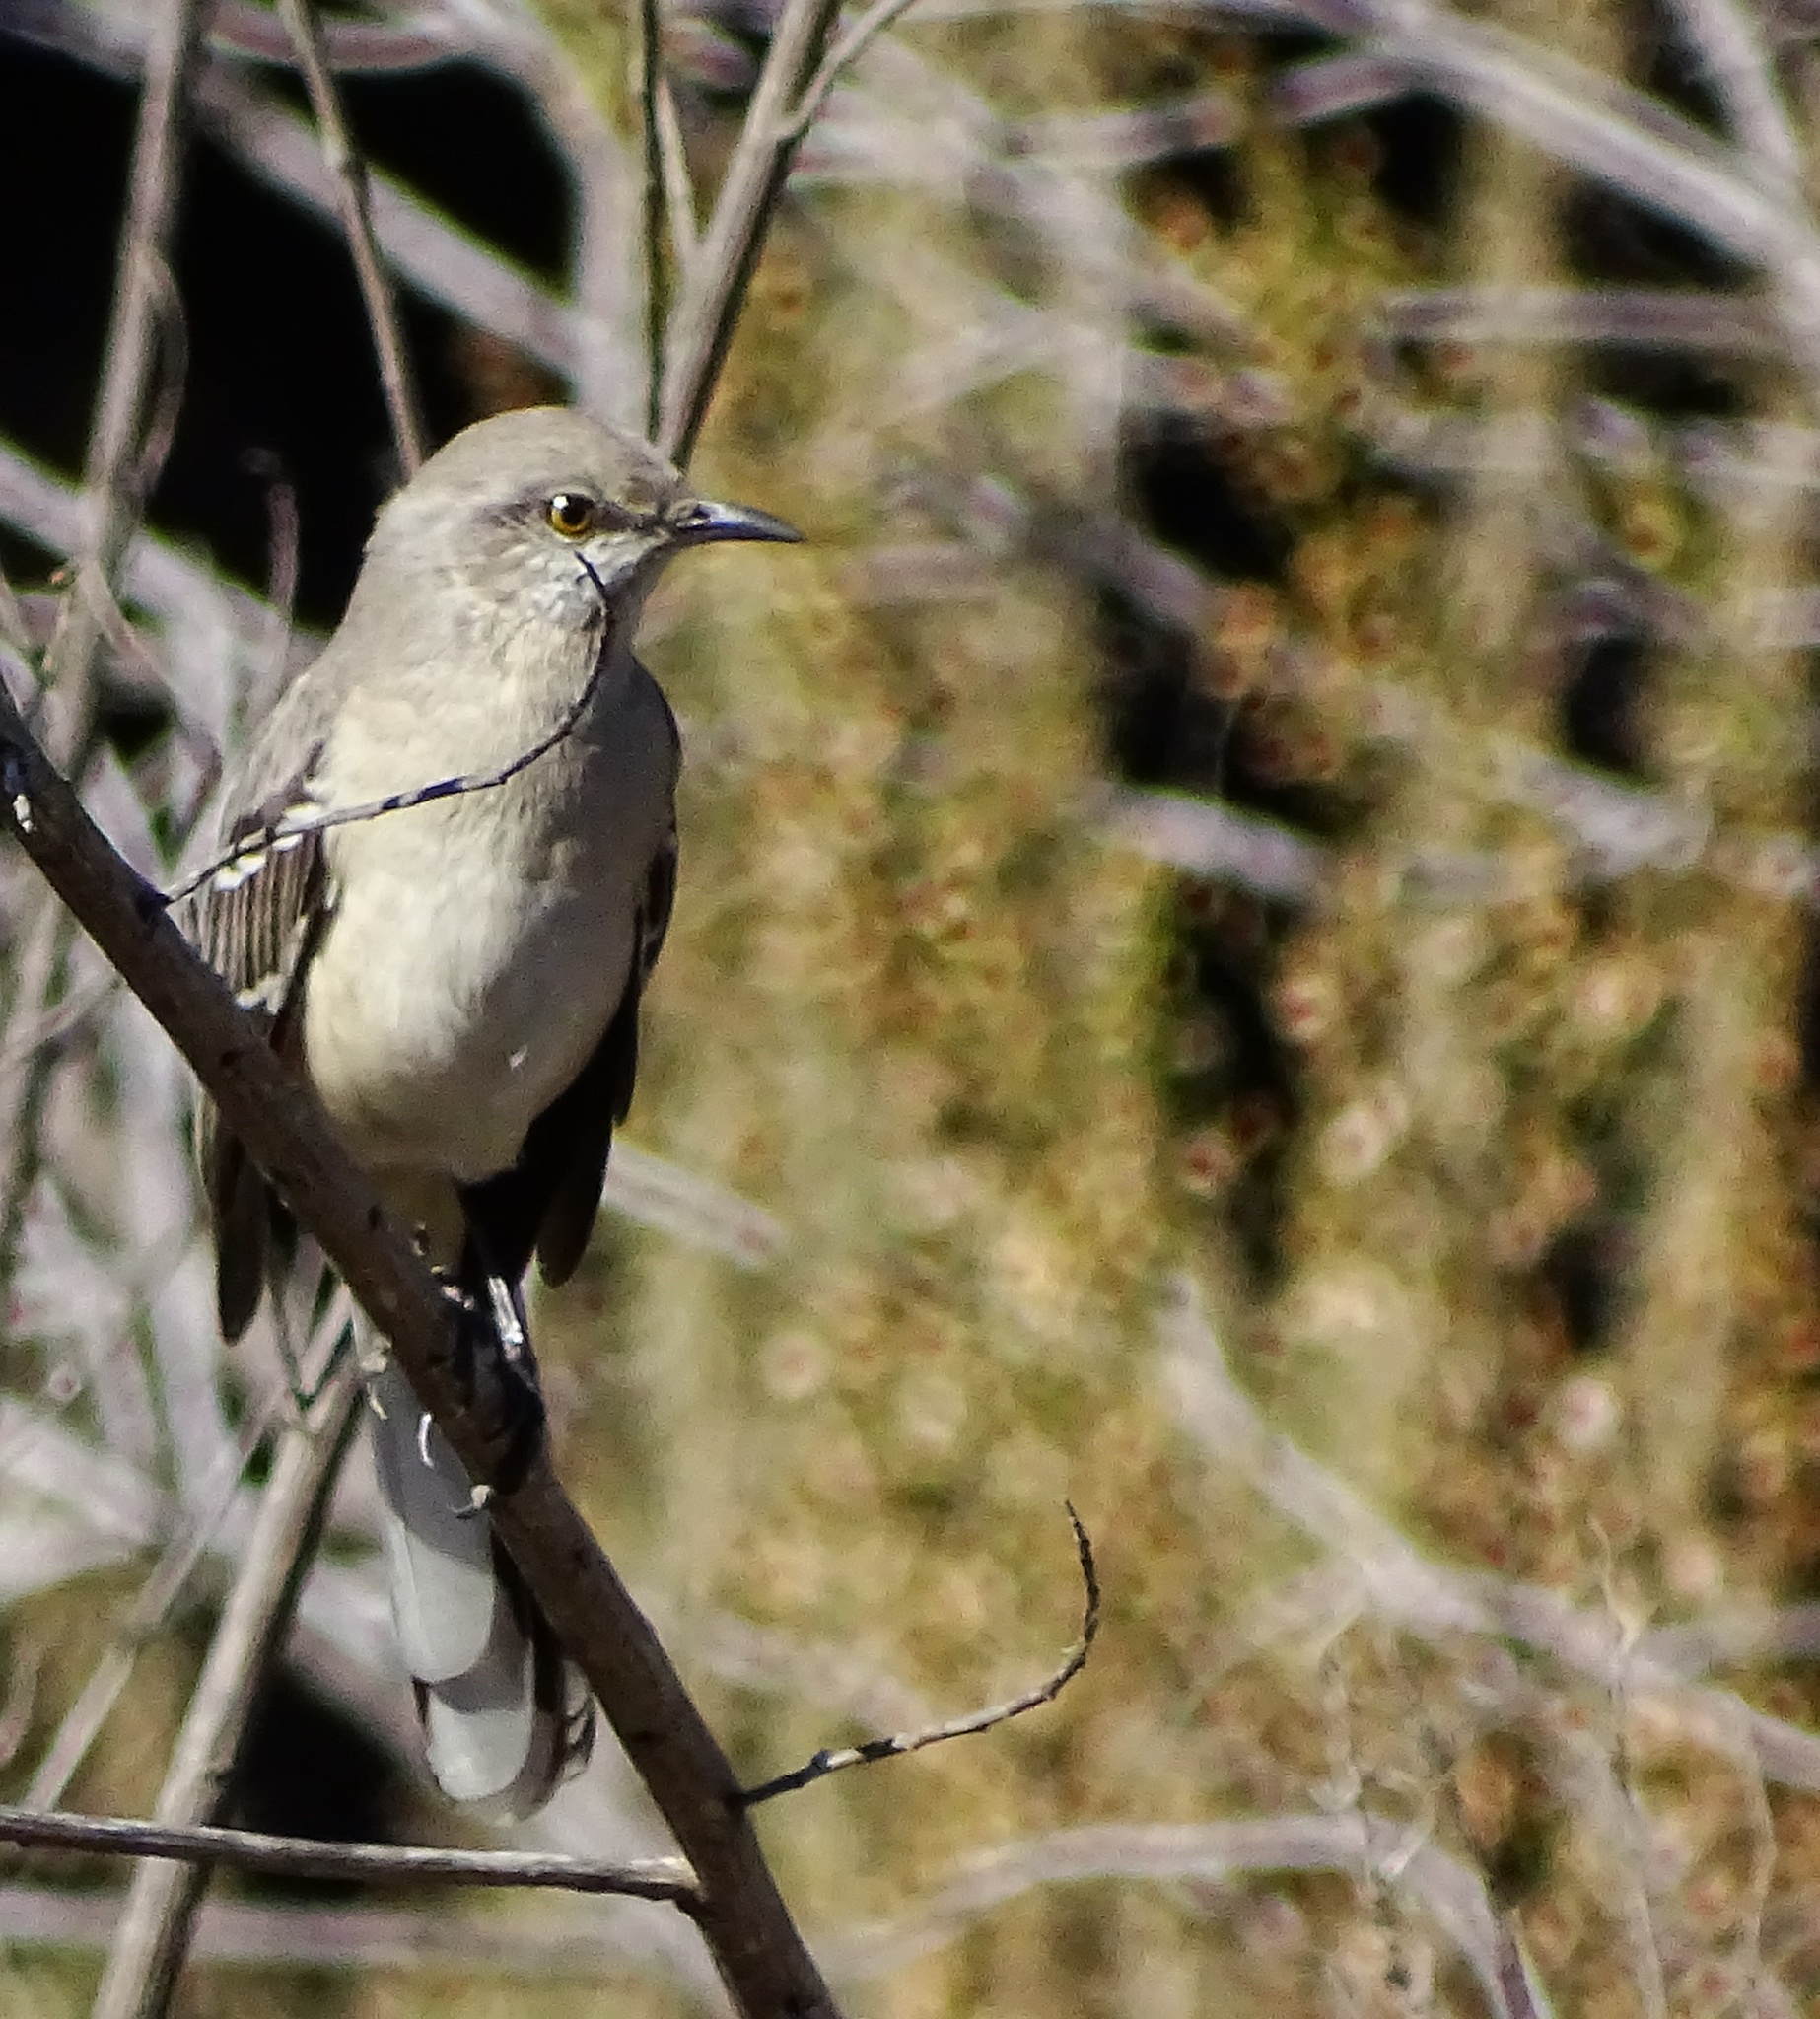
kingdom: Animalia
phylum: Chordata
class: Aves
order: Passeriformes
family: Mimidae
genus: Mimus
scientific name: Mimus polyglottos
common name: Northern mockingbird
